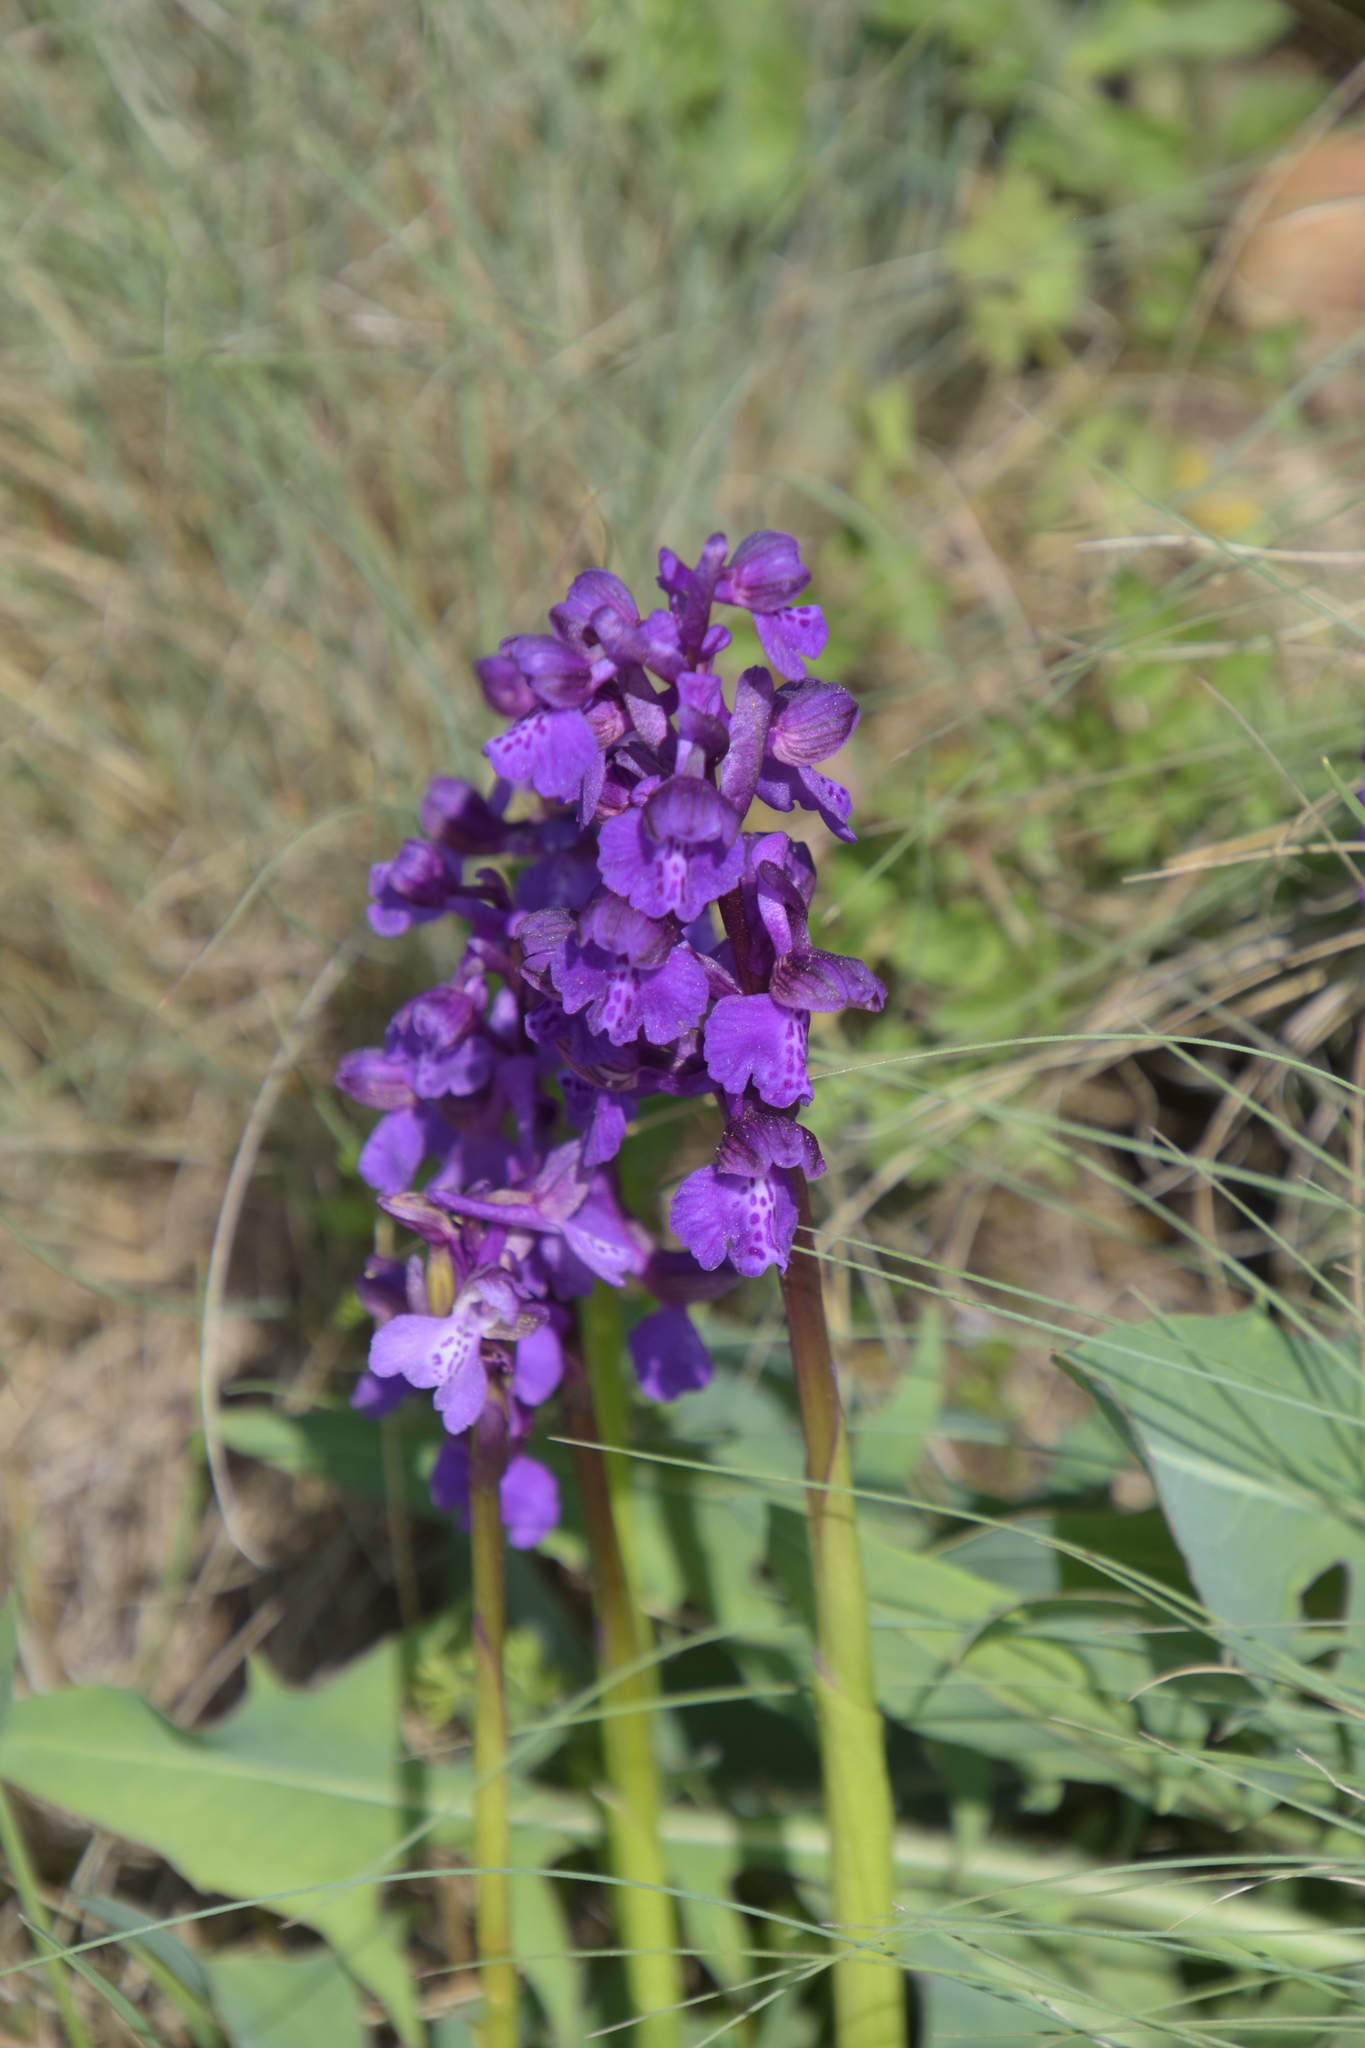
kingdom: Plantae
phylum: Tracheophyta
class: Liliopsida
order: Asparagales
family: Orchidaceae
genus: Anacamptis
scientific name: Anacamptis morio
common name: Green-winged orchid
